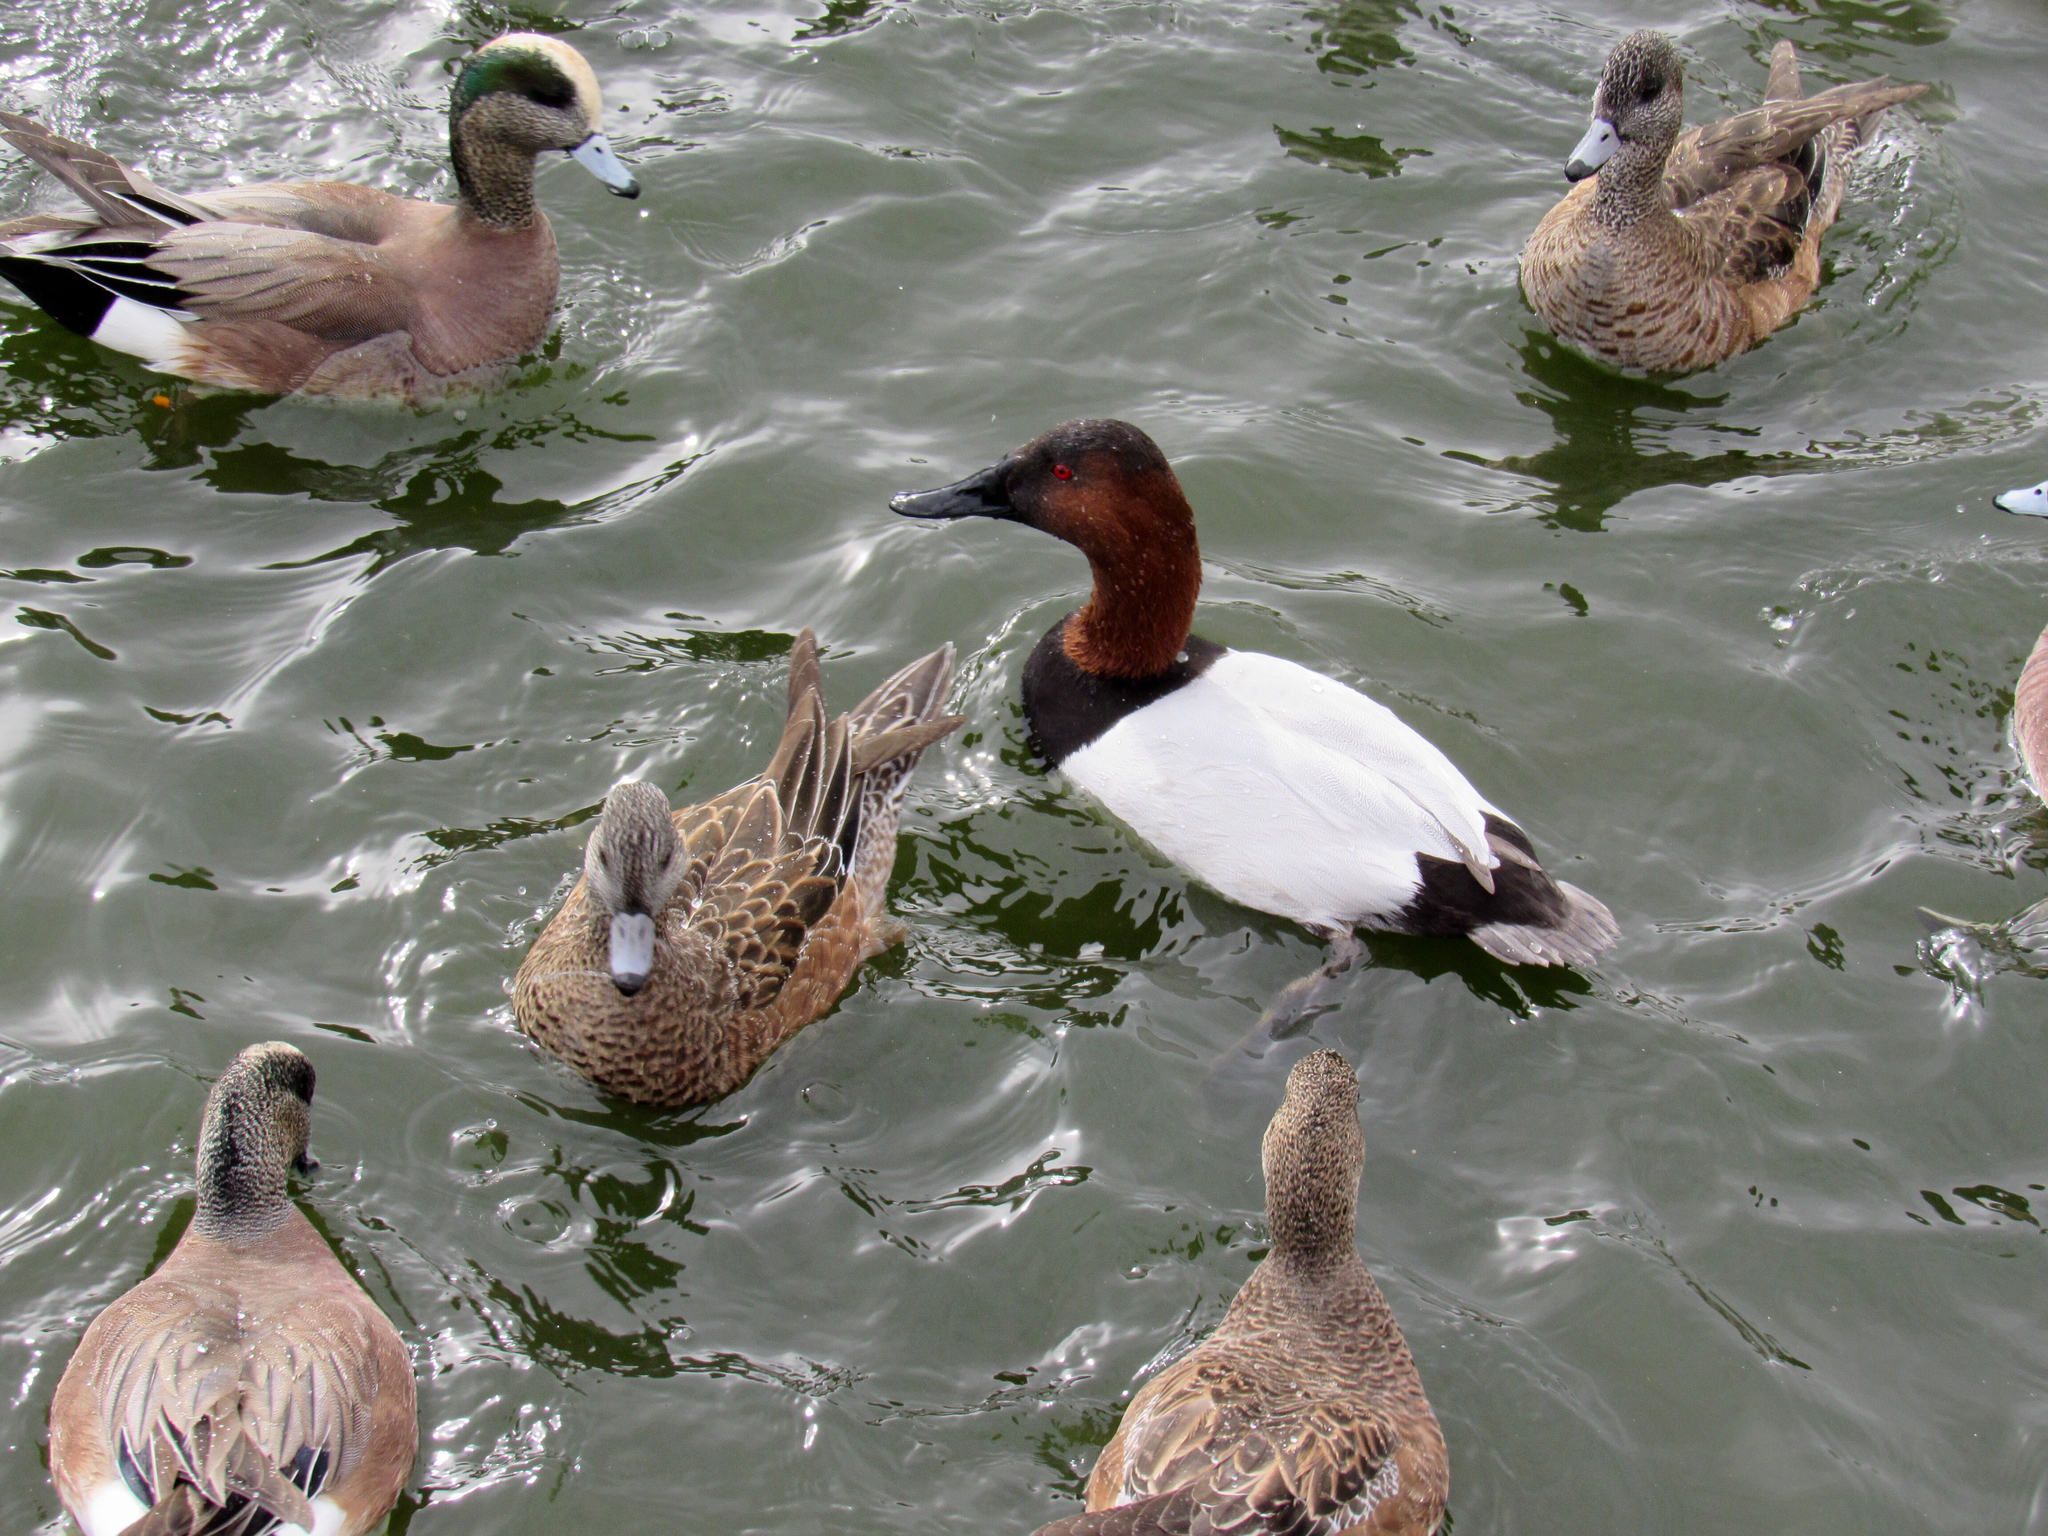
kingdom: Animalia
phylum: Chordata
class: Aves
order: Anseriformes
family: Anatidae
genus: Aythya
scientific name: Aythya valisineria
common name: Canvasback
